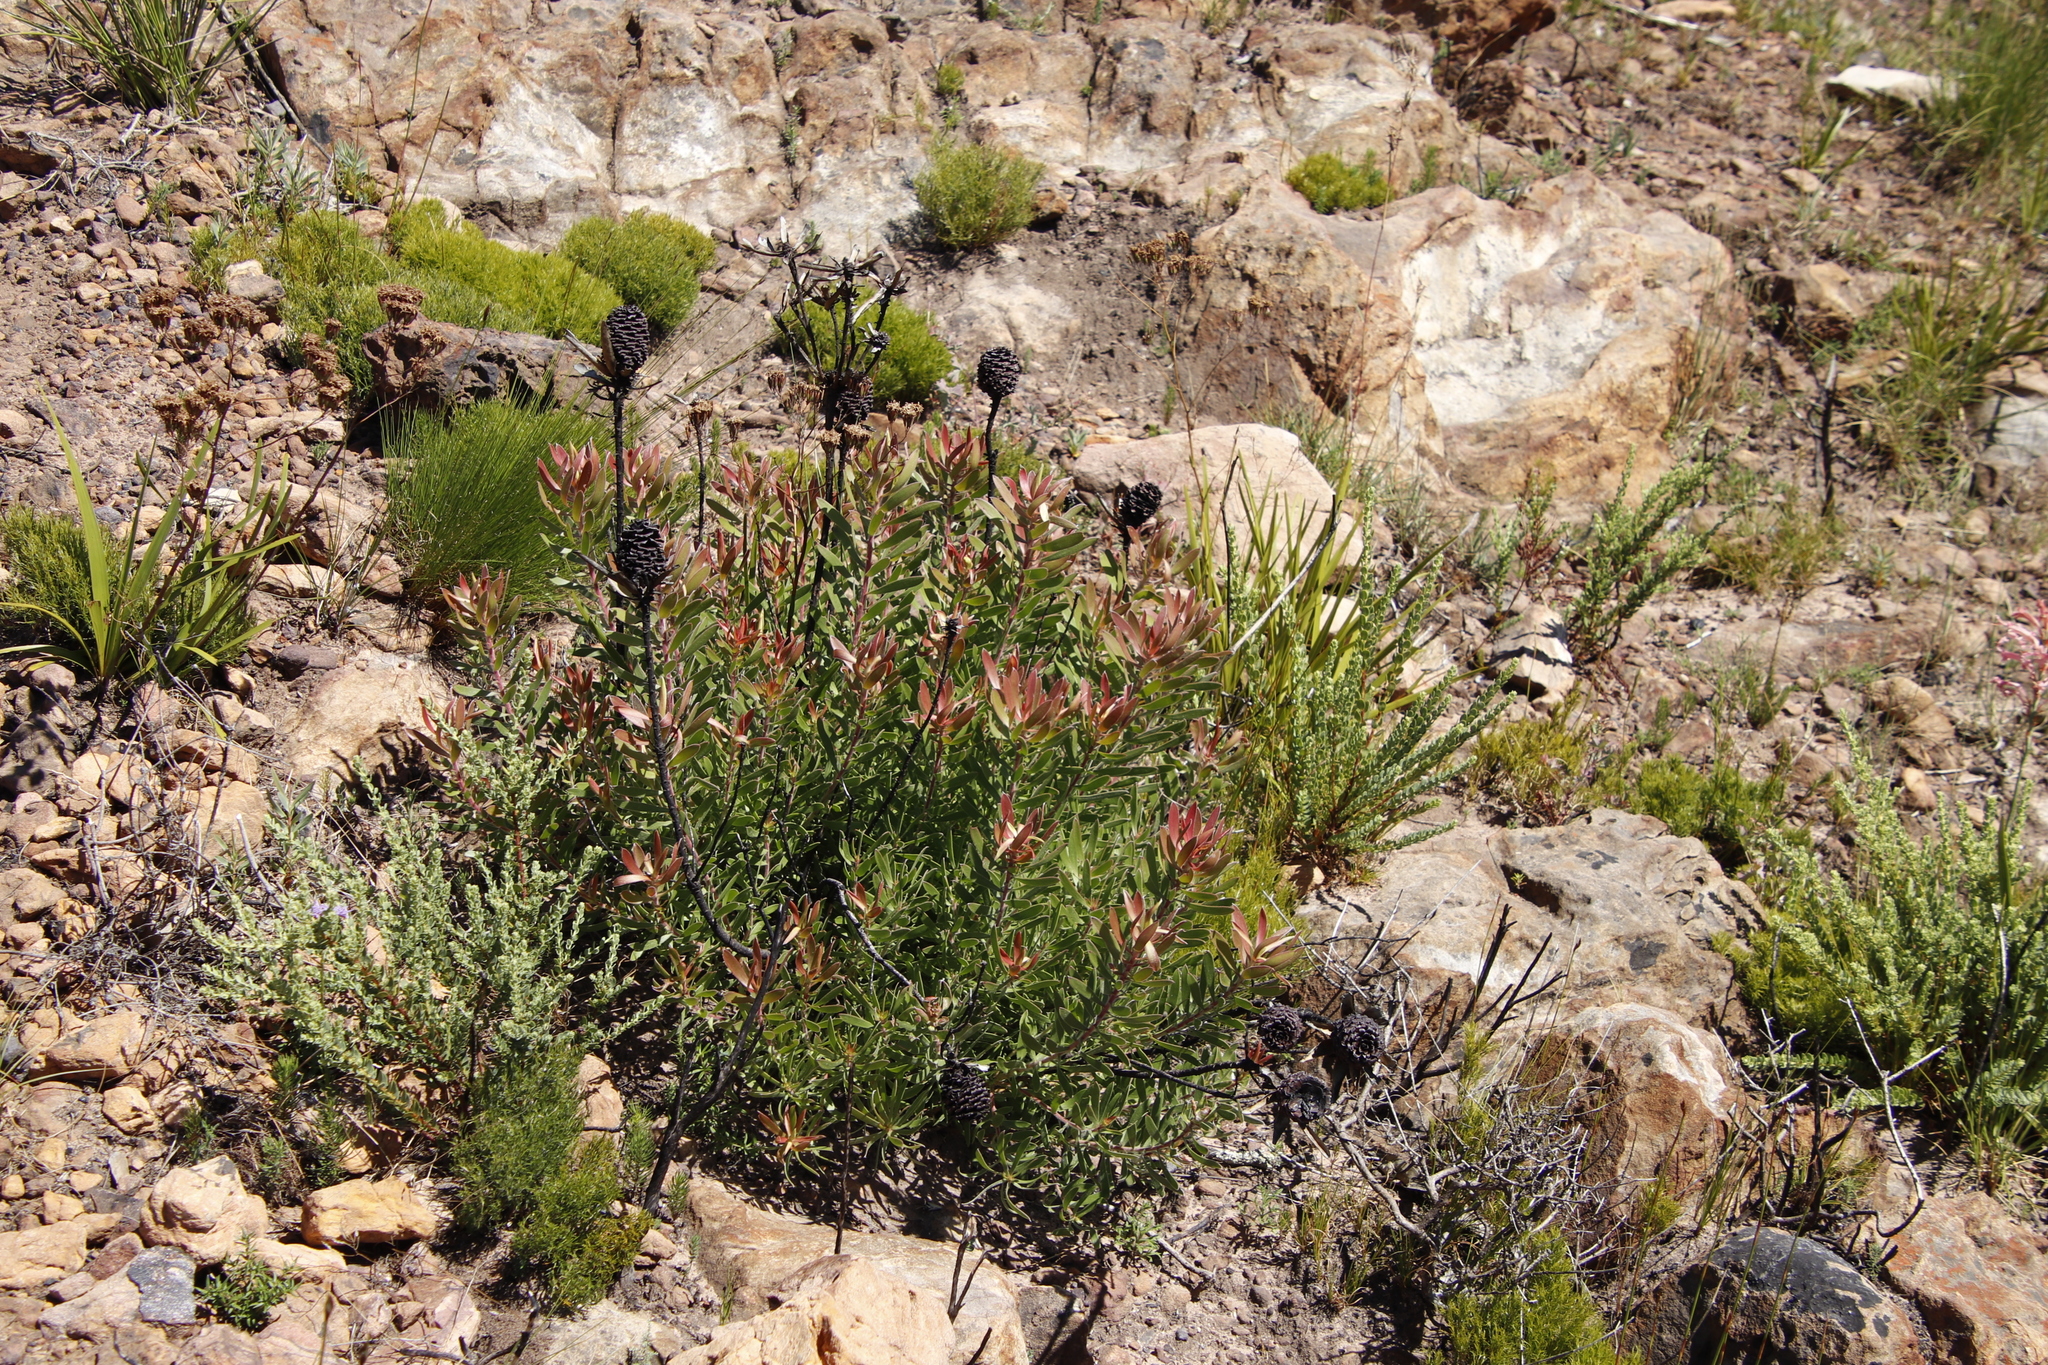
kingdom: Plantae
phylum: Tracheophyta
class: Magnoliopsida
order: Proteales
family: Proteaceae
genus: Leucadendron
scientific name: Leucadendron spissifolium
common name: Spear-leaf conebush
